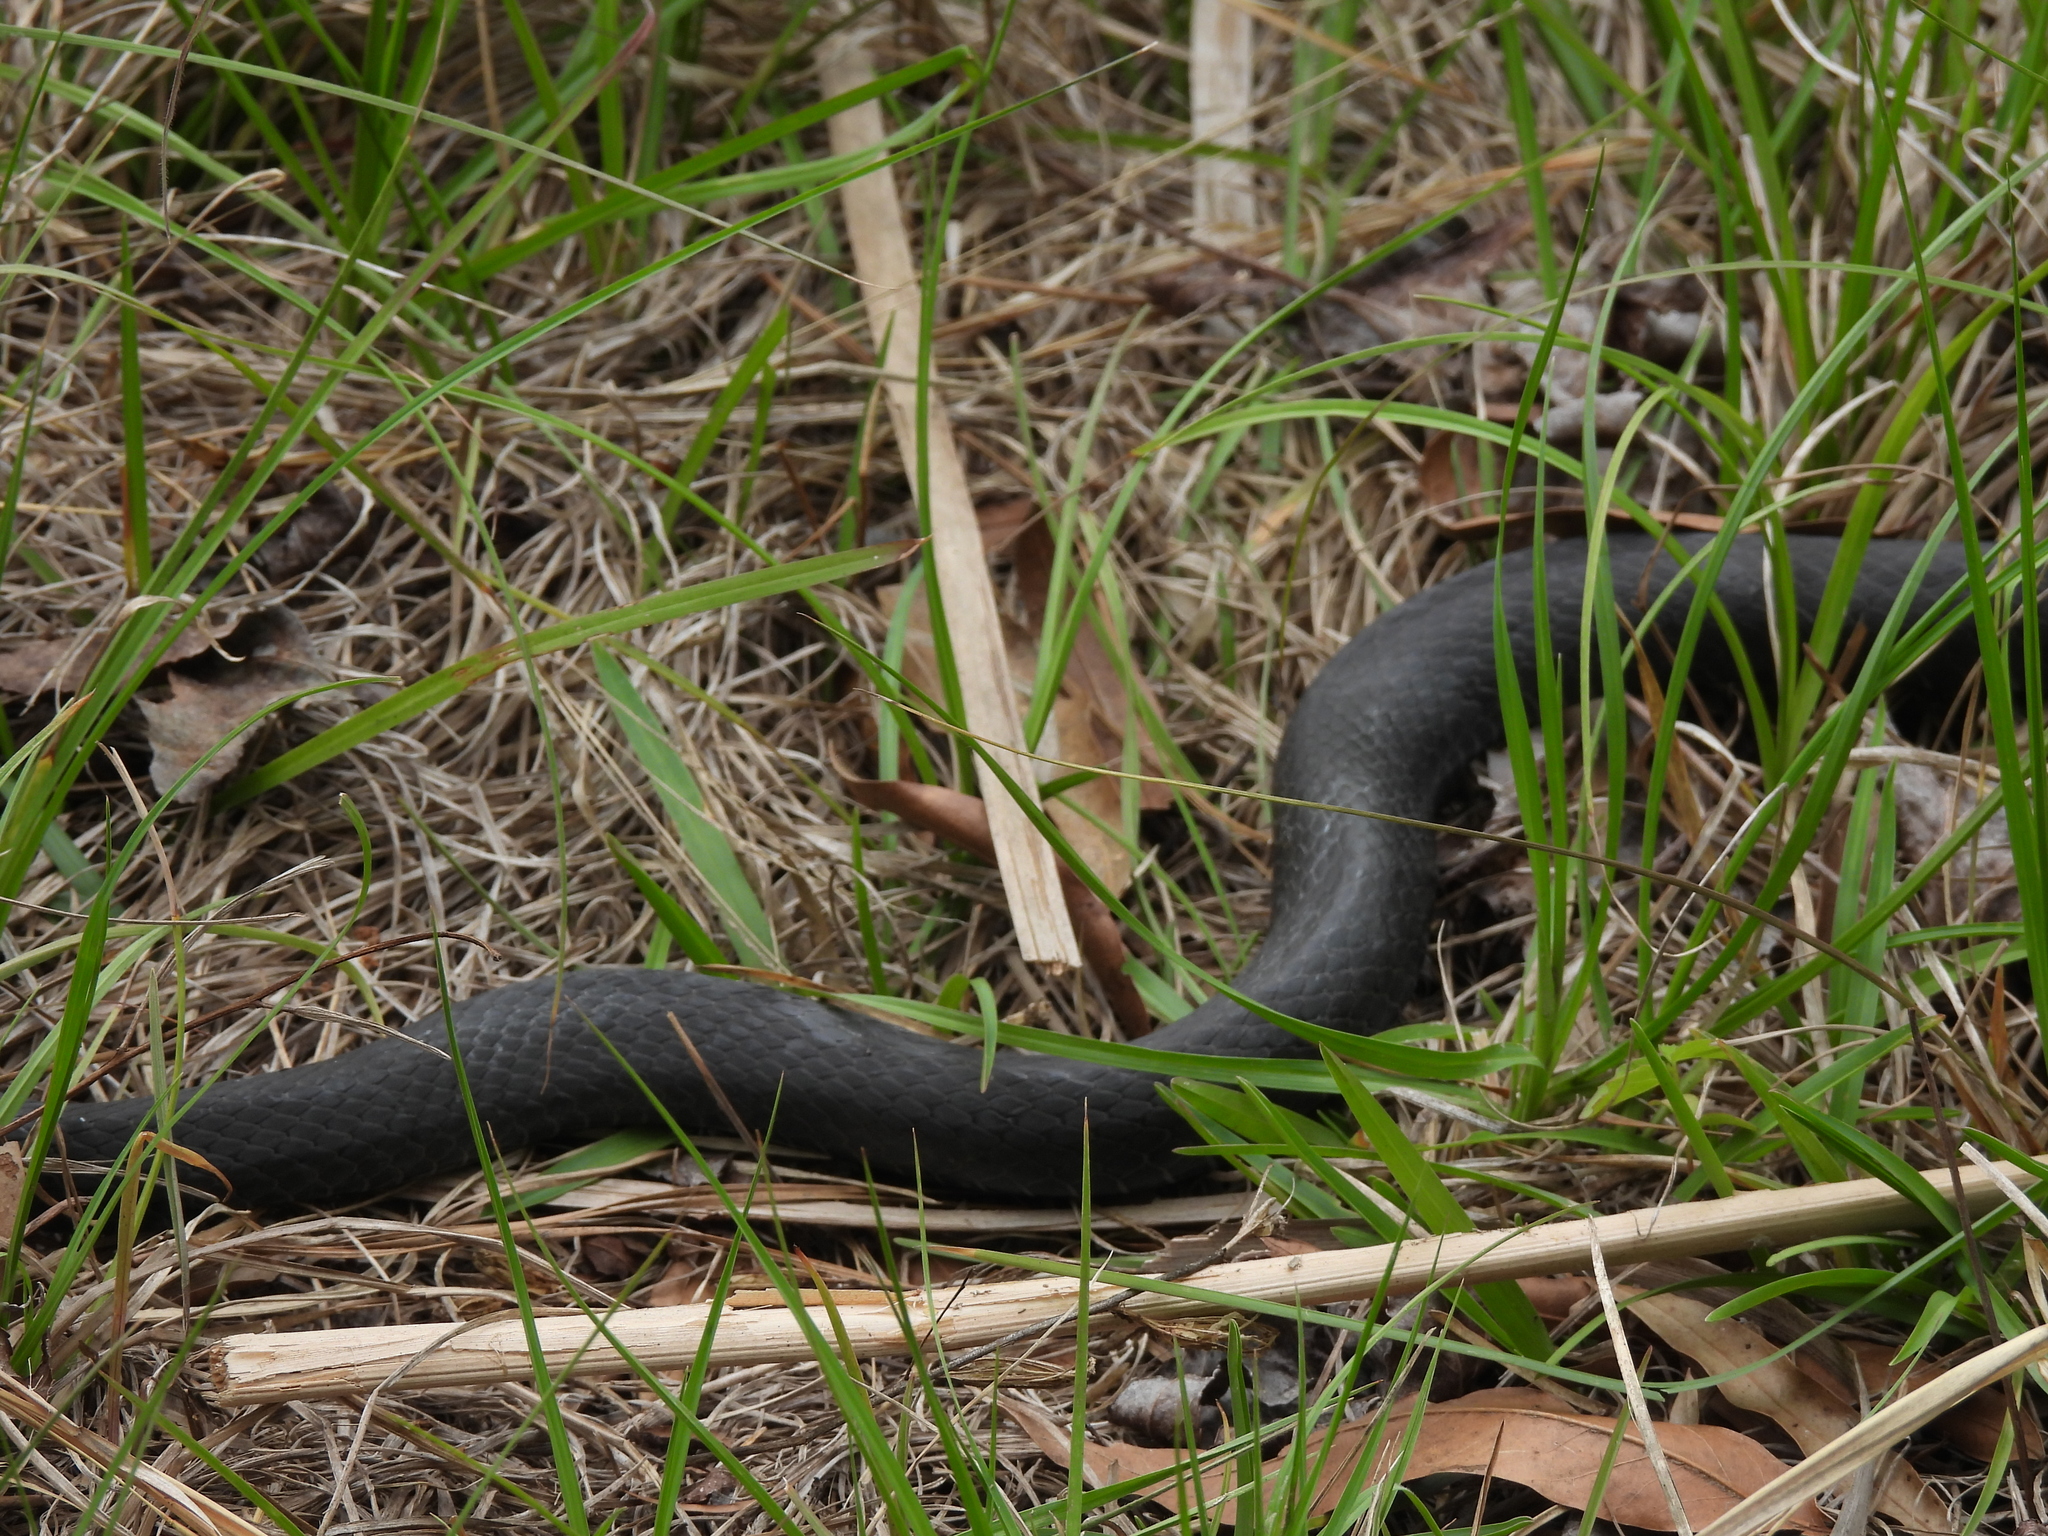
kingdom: Animalia
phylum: Chordata
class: Squamata
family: Colubridae
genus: Coluber
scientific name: Coluber constrictor
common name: Eastern racer
